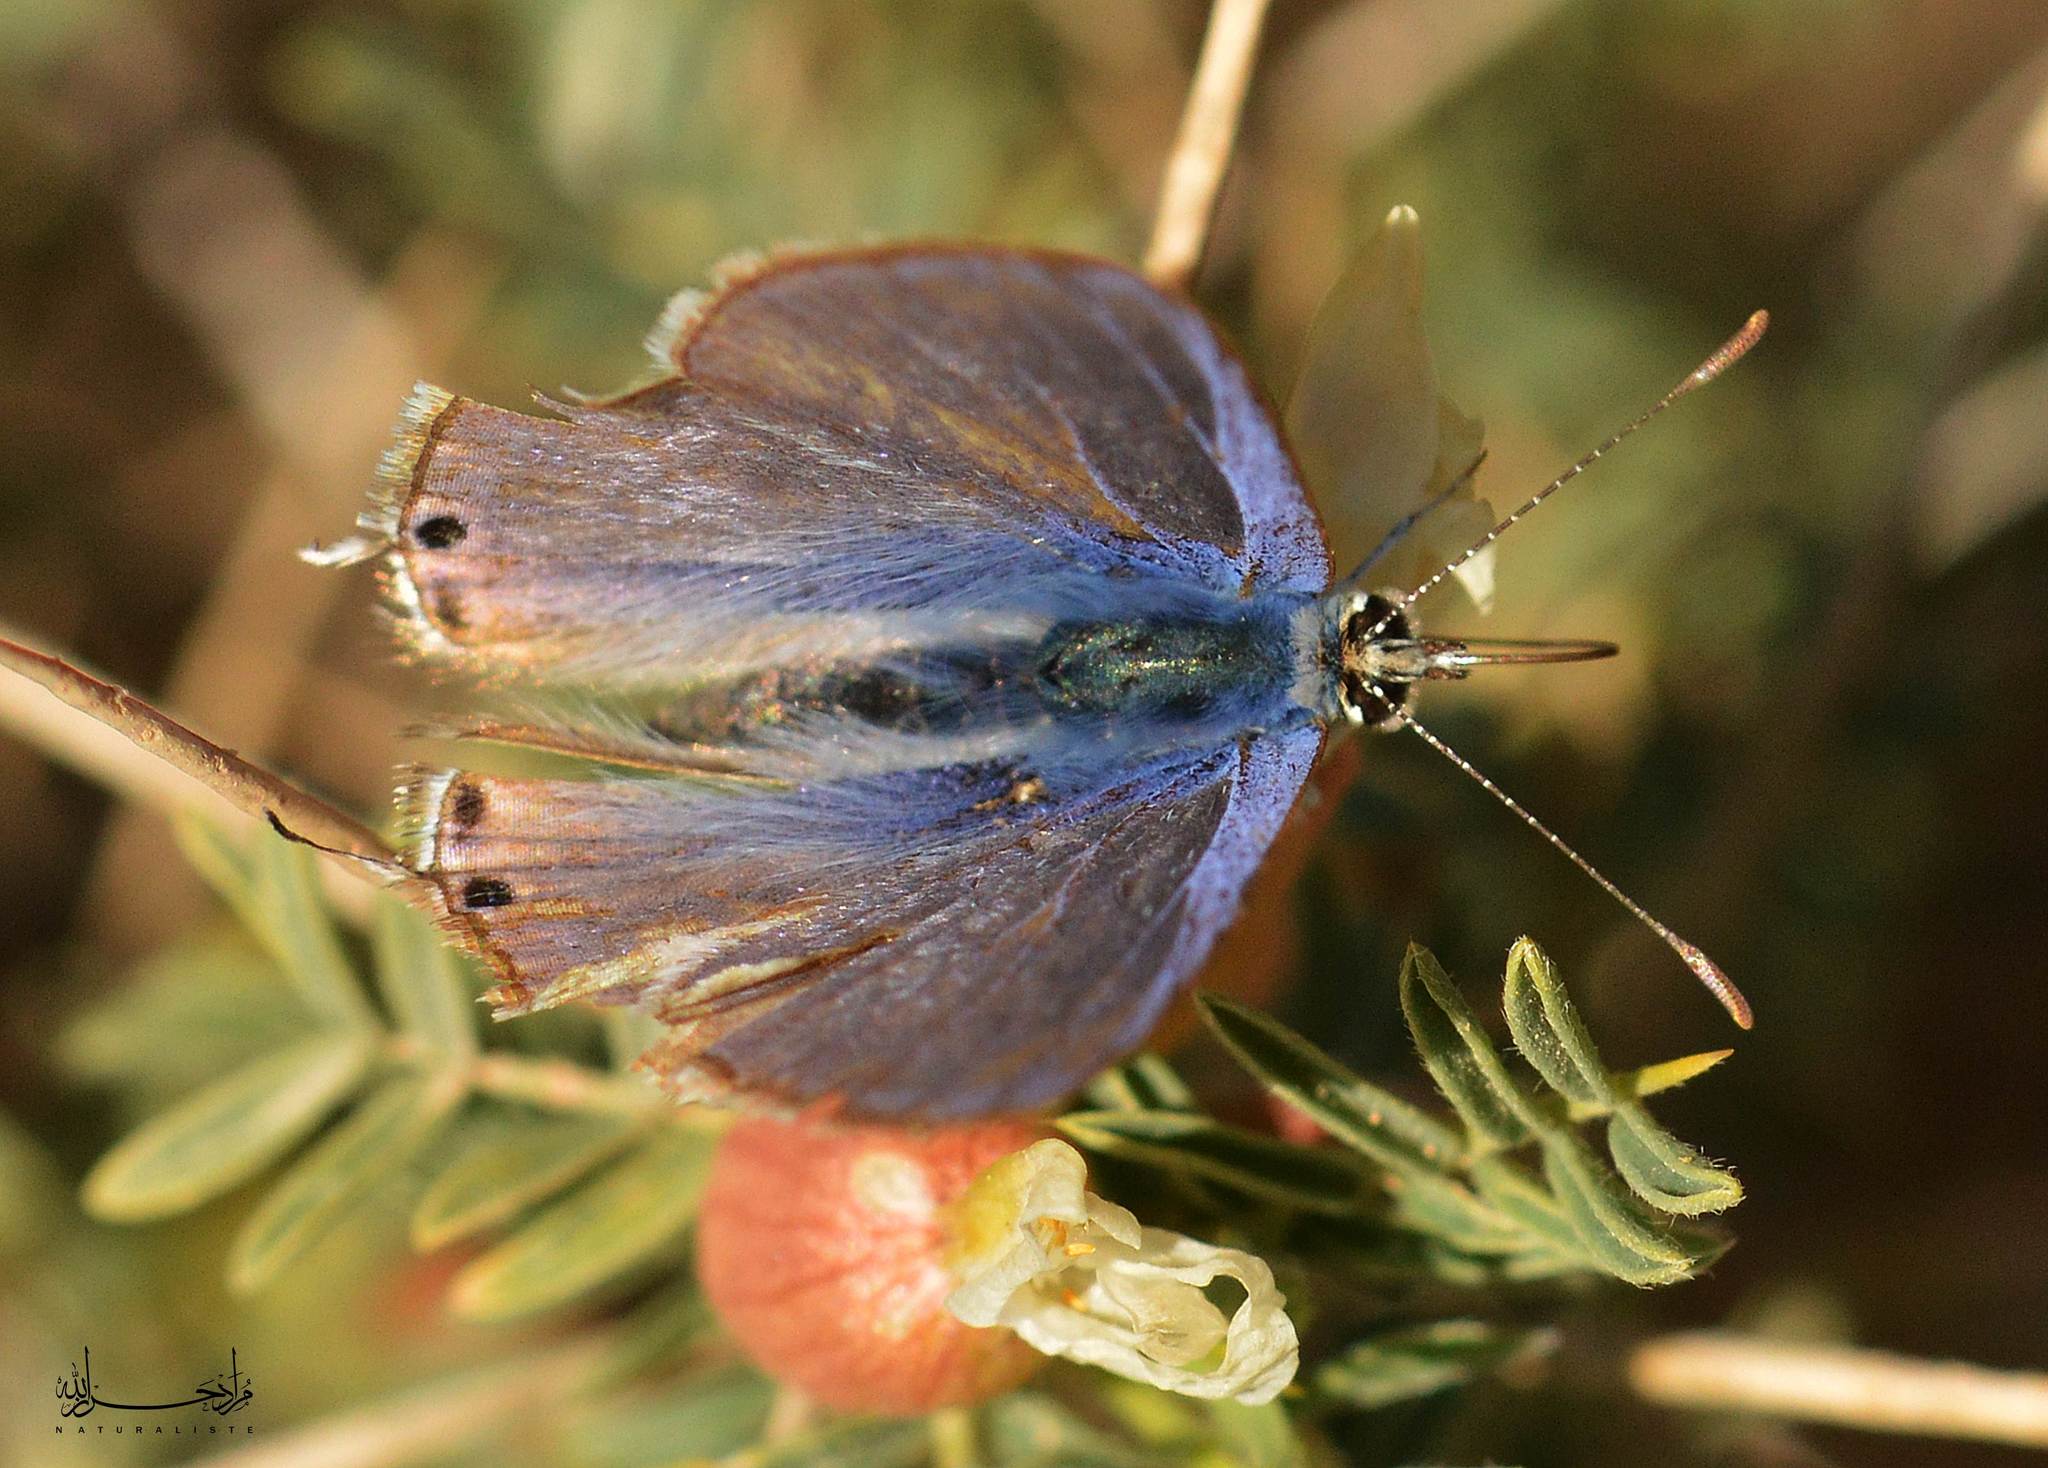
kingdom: Animalia
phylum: Arthropoda
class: Insecta
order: Lepidoptera
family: Lycaenidae
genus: Lampides
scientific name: Lampides boeticus
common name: Long-tailed blue
